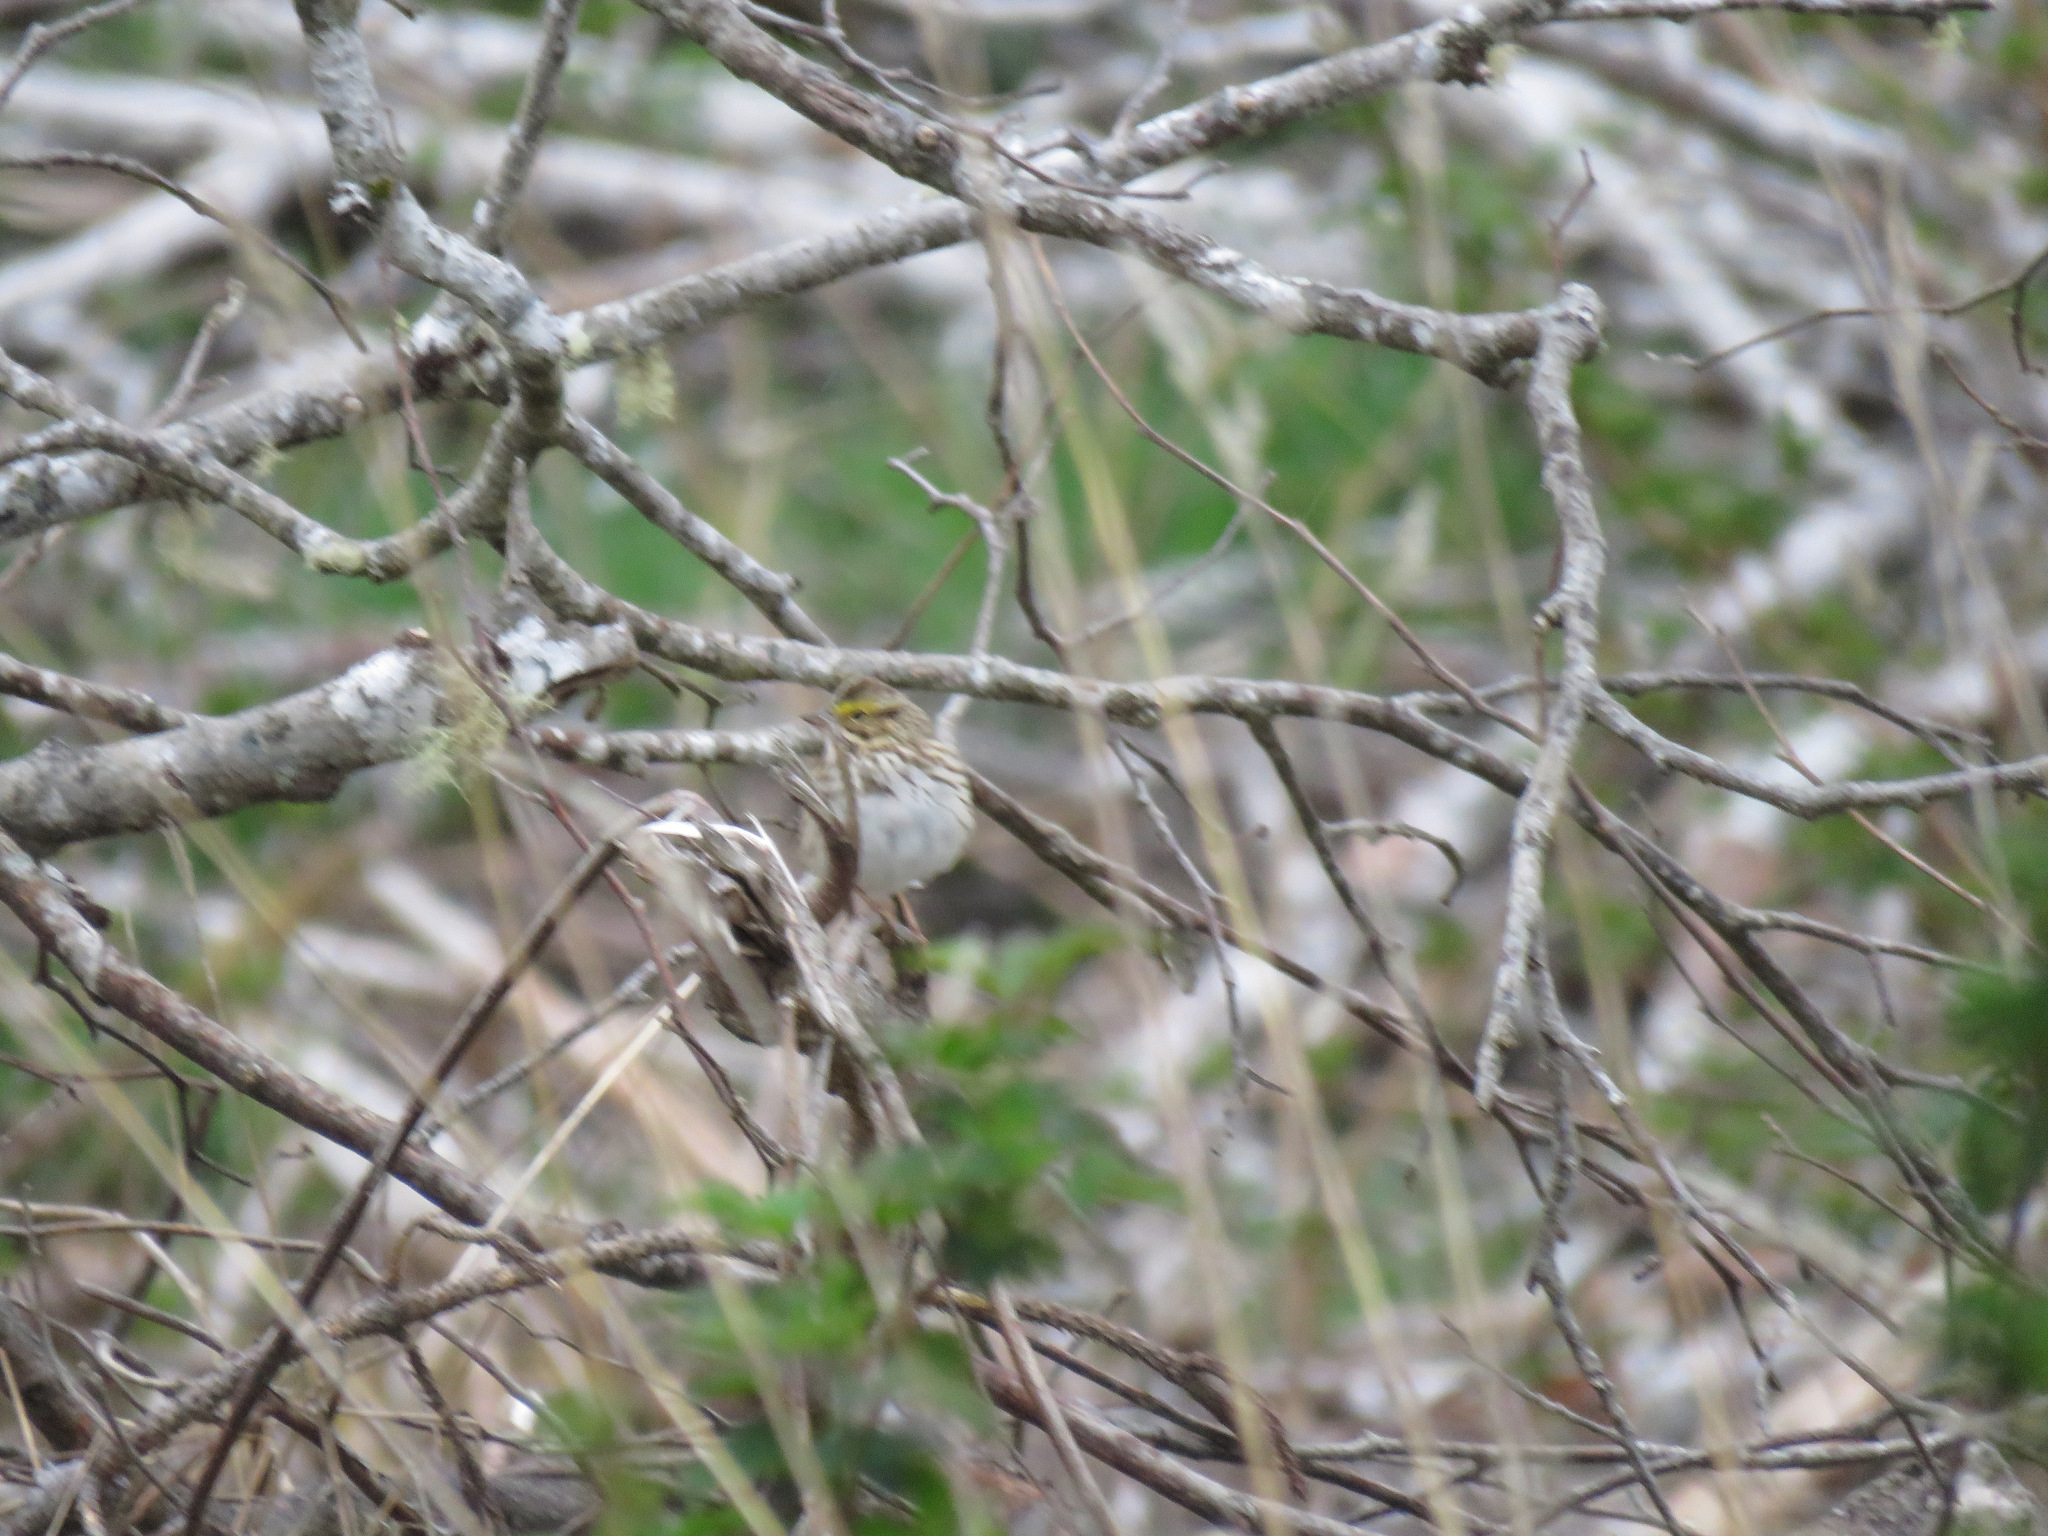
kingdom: Animalia
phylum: Chordata
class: Aves
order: Passeriformes
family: Passerellidae
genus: Passerculus
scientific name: Passerculus sandwichensis
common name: Savannah sparrow
